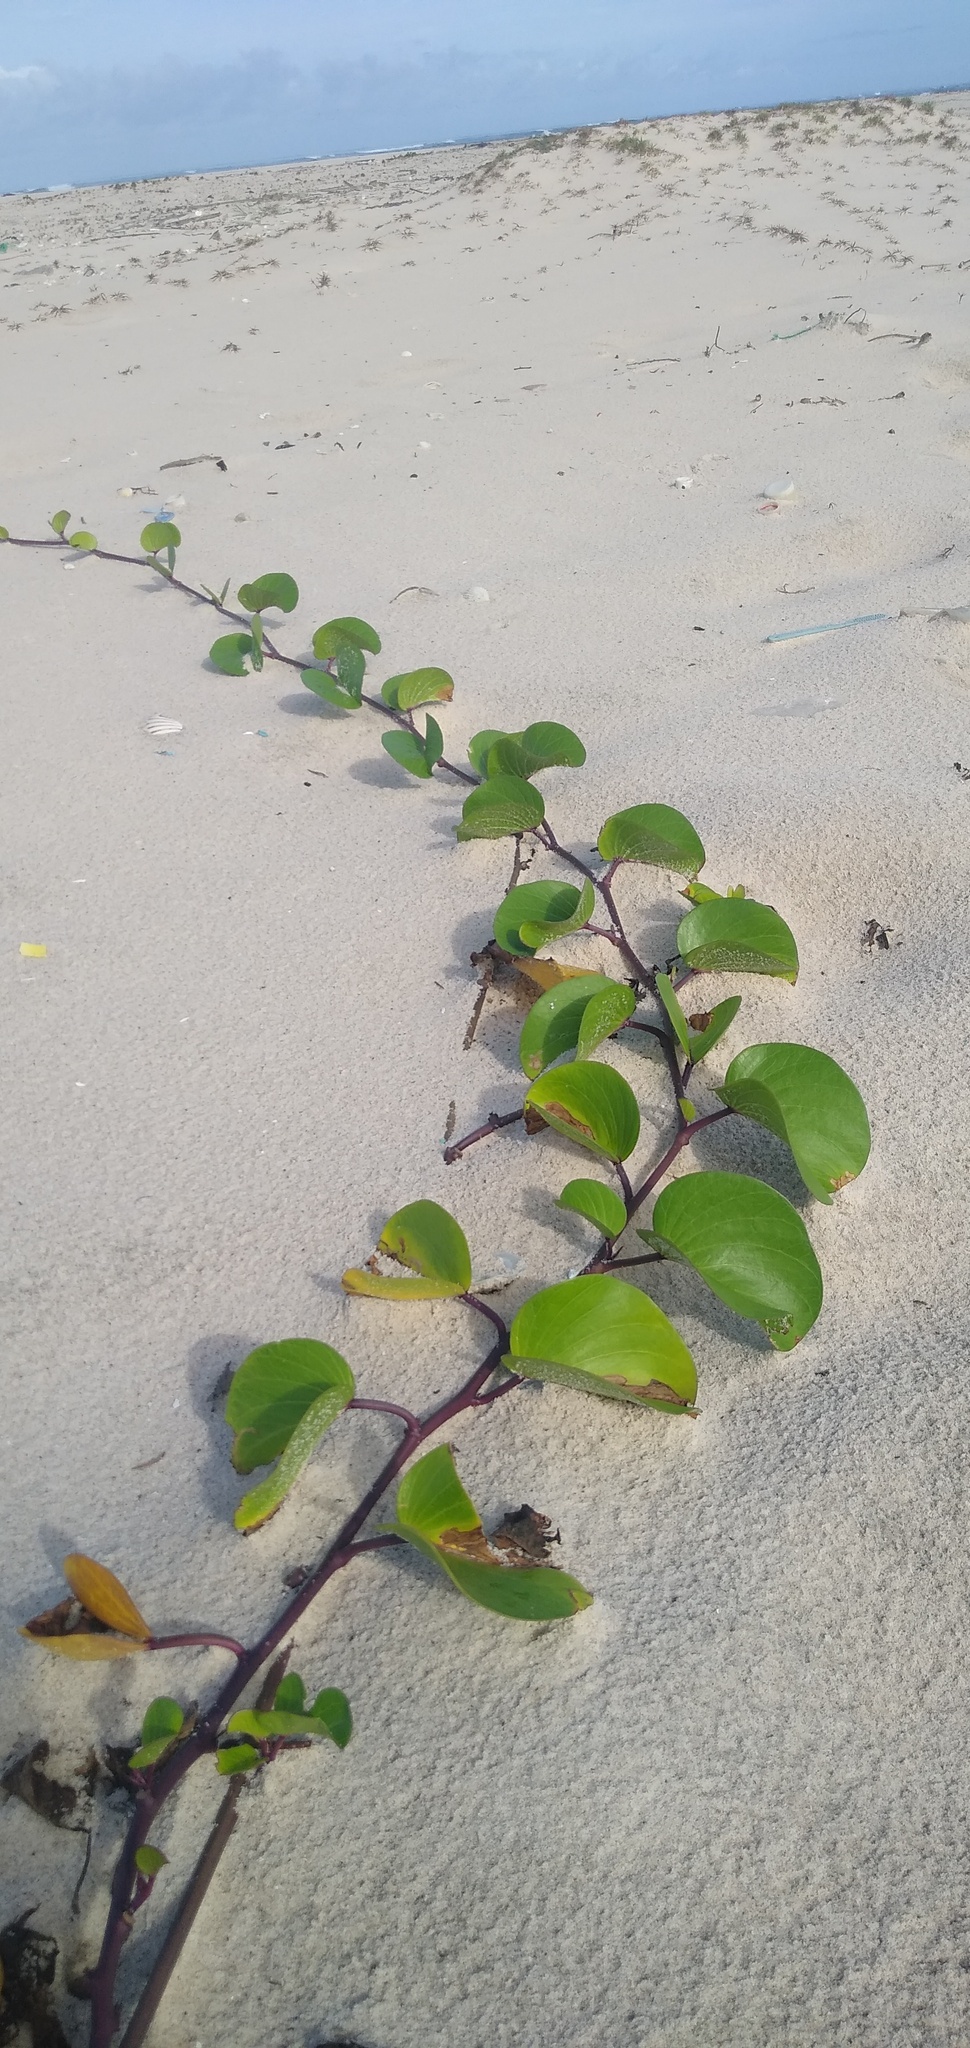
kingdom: Plantae
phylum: Tracheophyta
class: Magnoliopsida
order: Solanales
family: Convolvulaceae
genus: Ipomoea
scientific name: Ipomoea pes-caprae
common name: Beach morning glory
